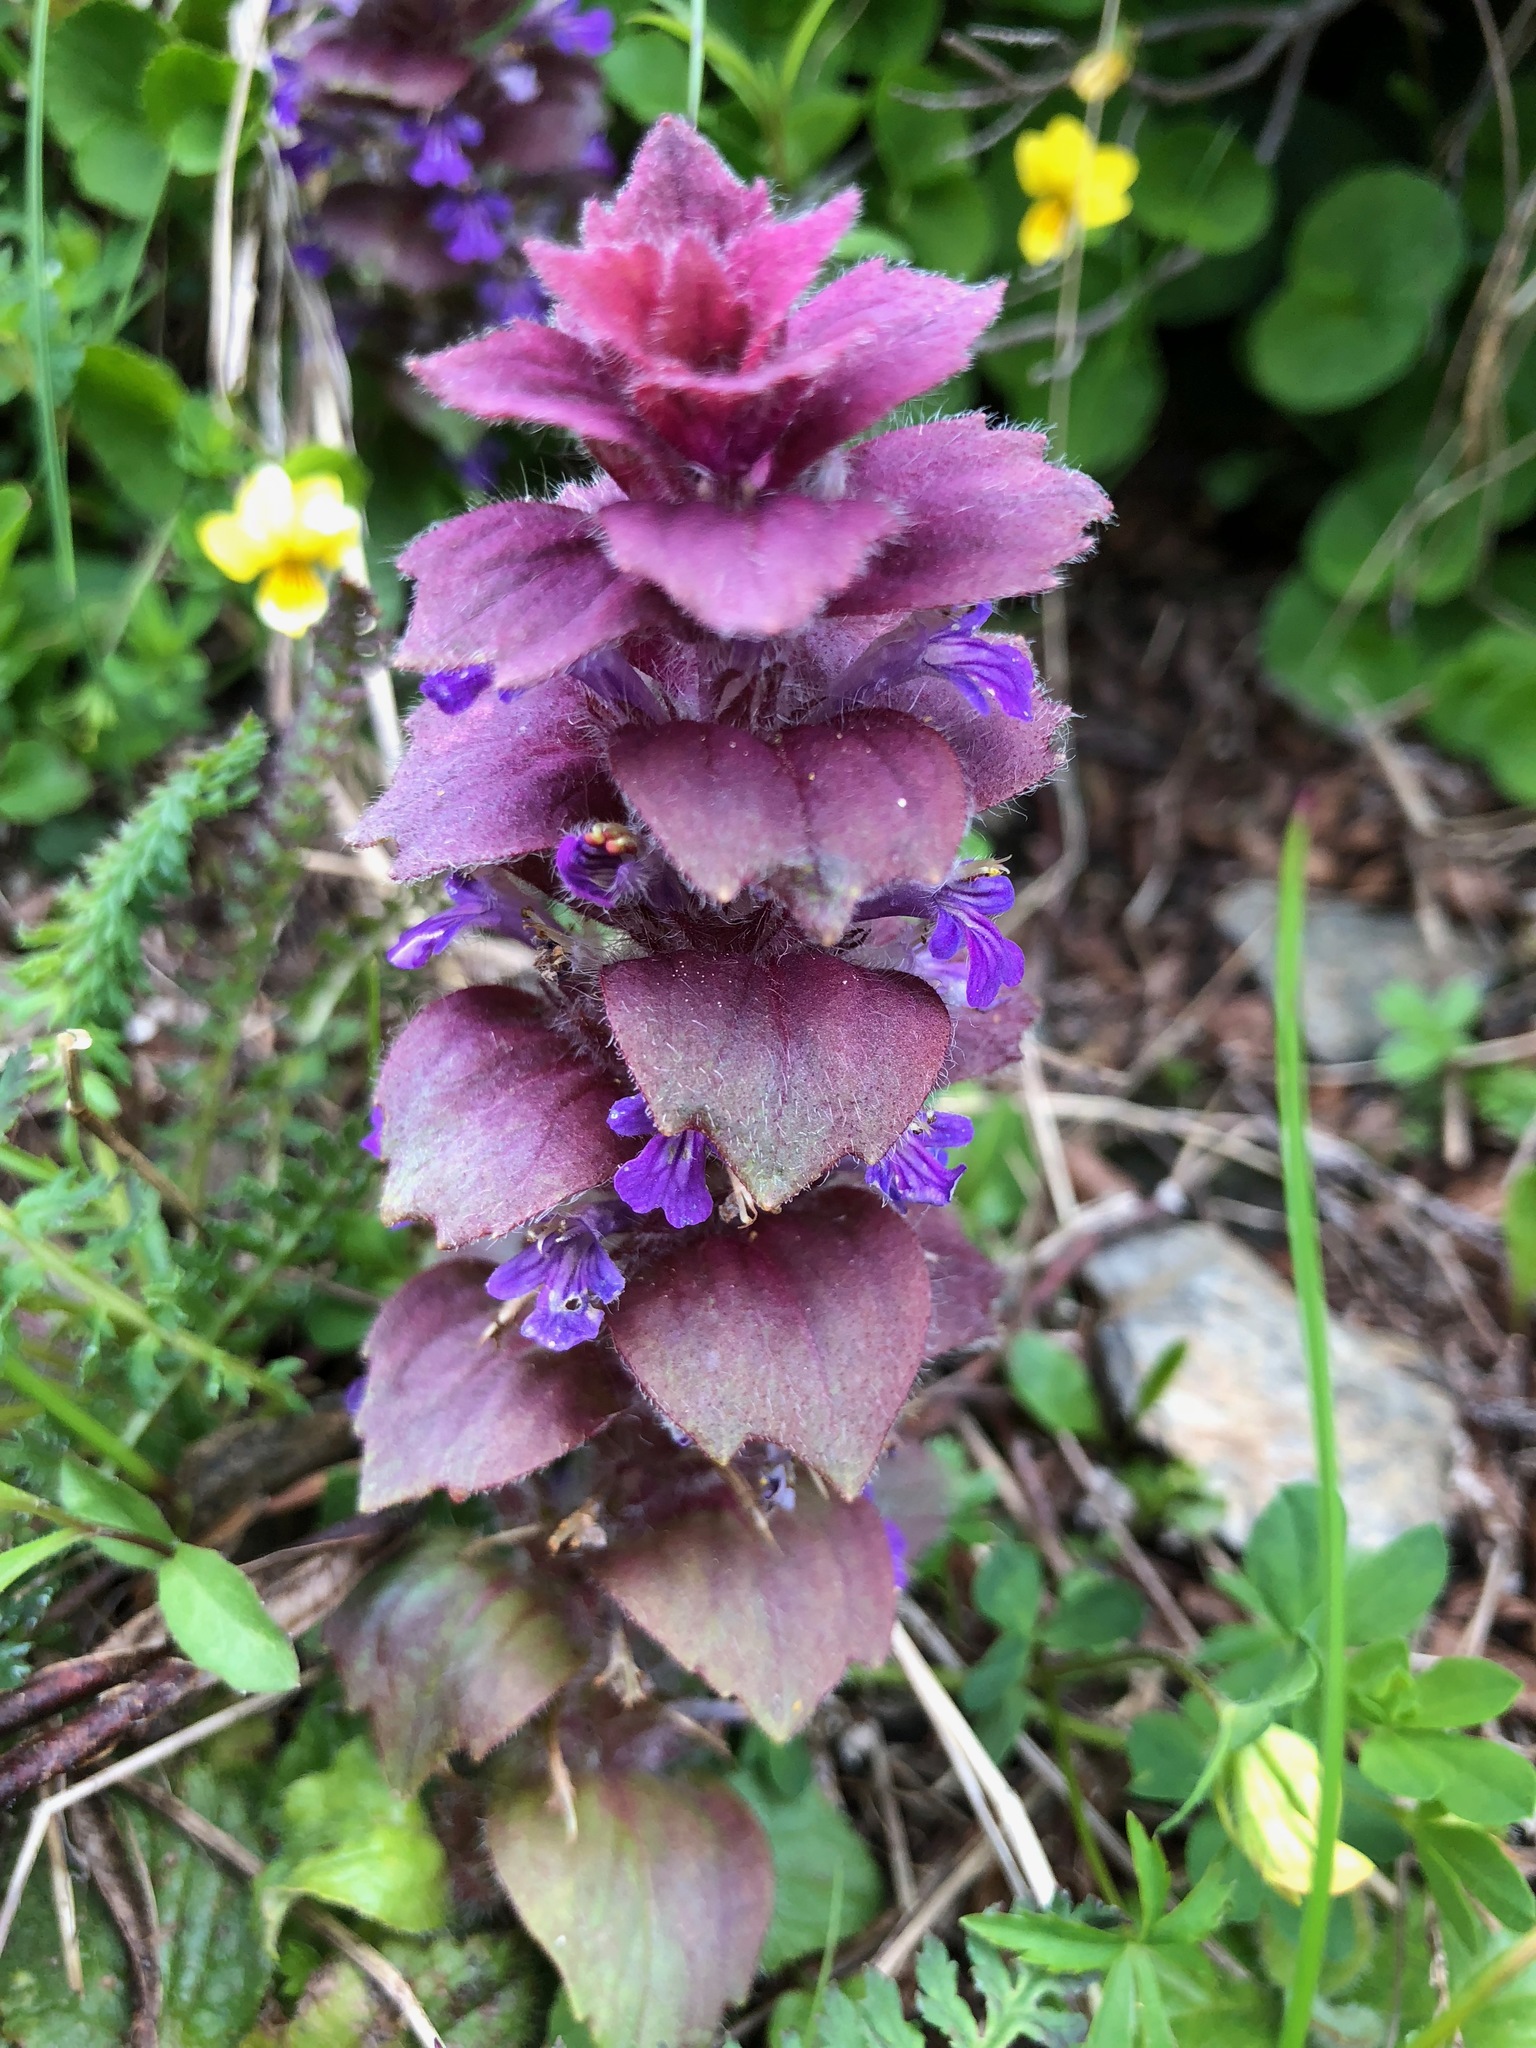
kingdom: Plantae
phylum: Tracheophyta
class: Magnoliopsida
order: Lamiales
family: Lamiaceae
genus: Ajuga
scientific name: Ajuga pyramidalis
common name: Pyramid bugle
